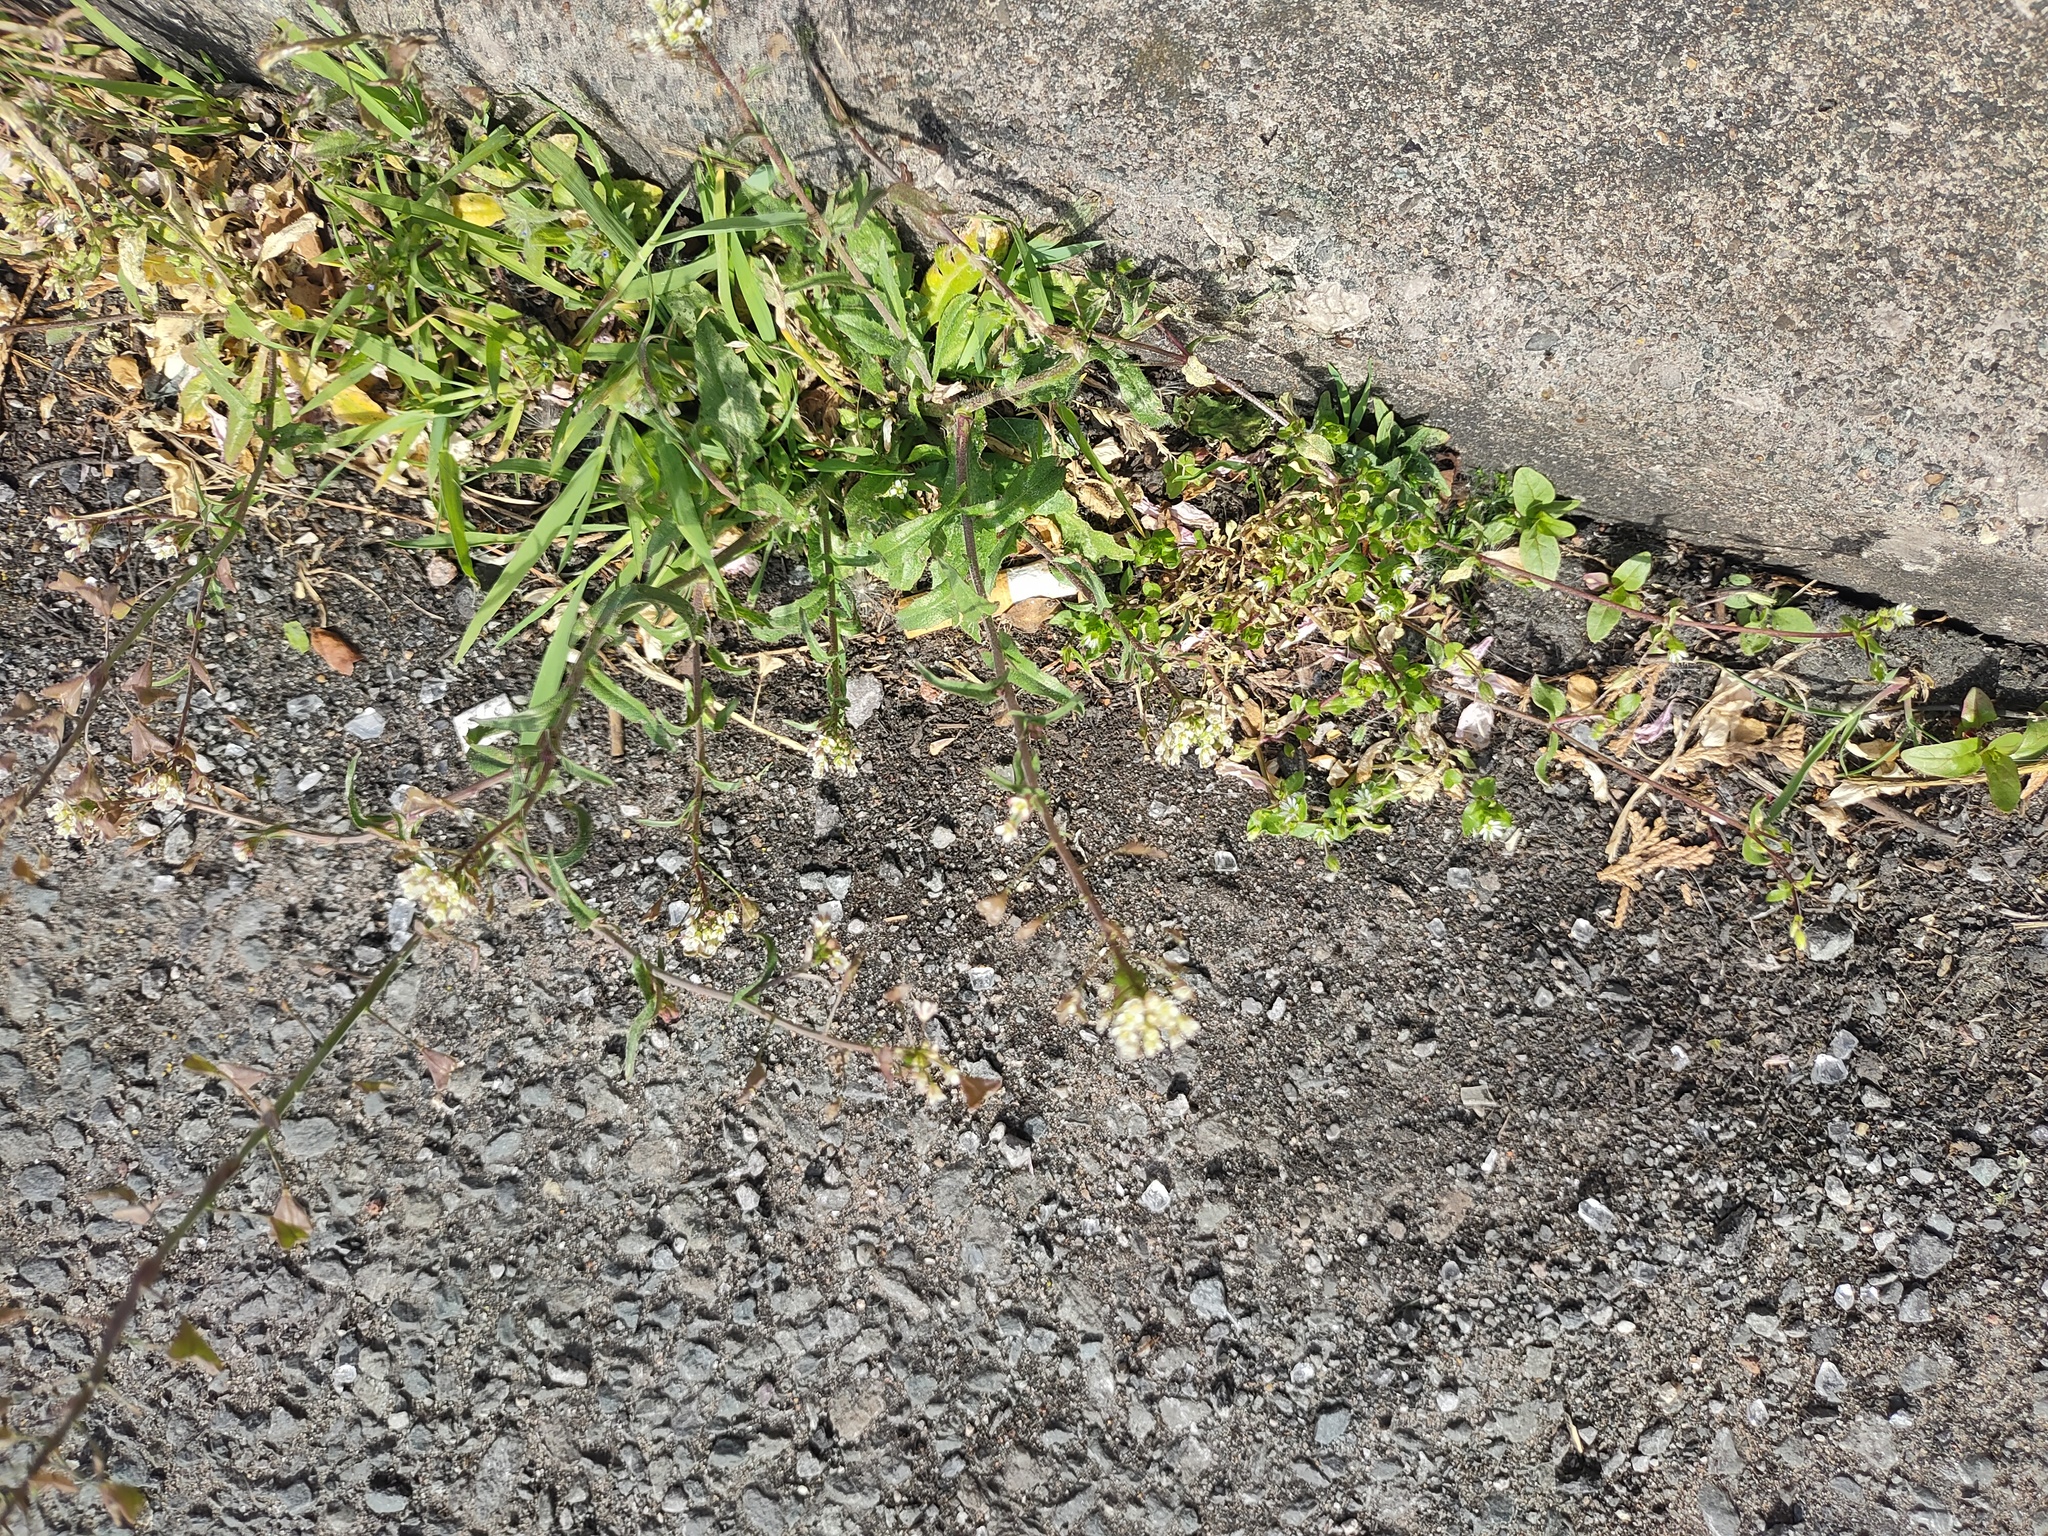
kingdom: Plantae
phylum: Tracheophyta
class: Magnoliopsida
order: Brassicales
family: Brassicaceae
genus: Capsella
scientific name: Capsella bursa-pastoris
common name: Shepherd's purse
